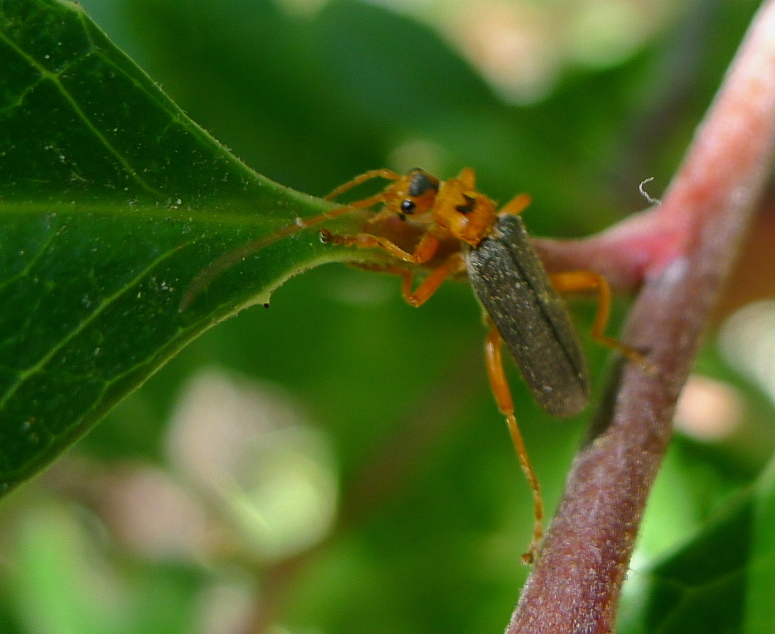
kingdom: Animalia
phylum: Arthropoda
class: Insecta
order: Coleoptera
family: Cantharidae
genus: Cultellunguis
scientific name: Cultellunguis americanus
